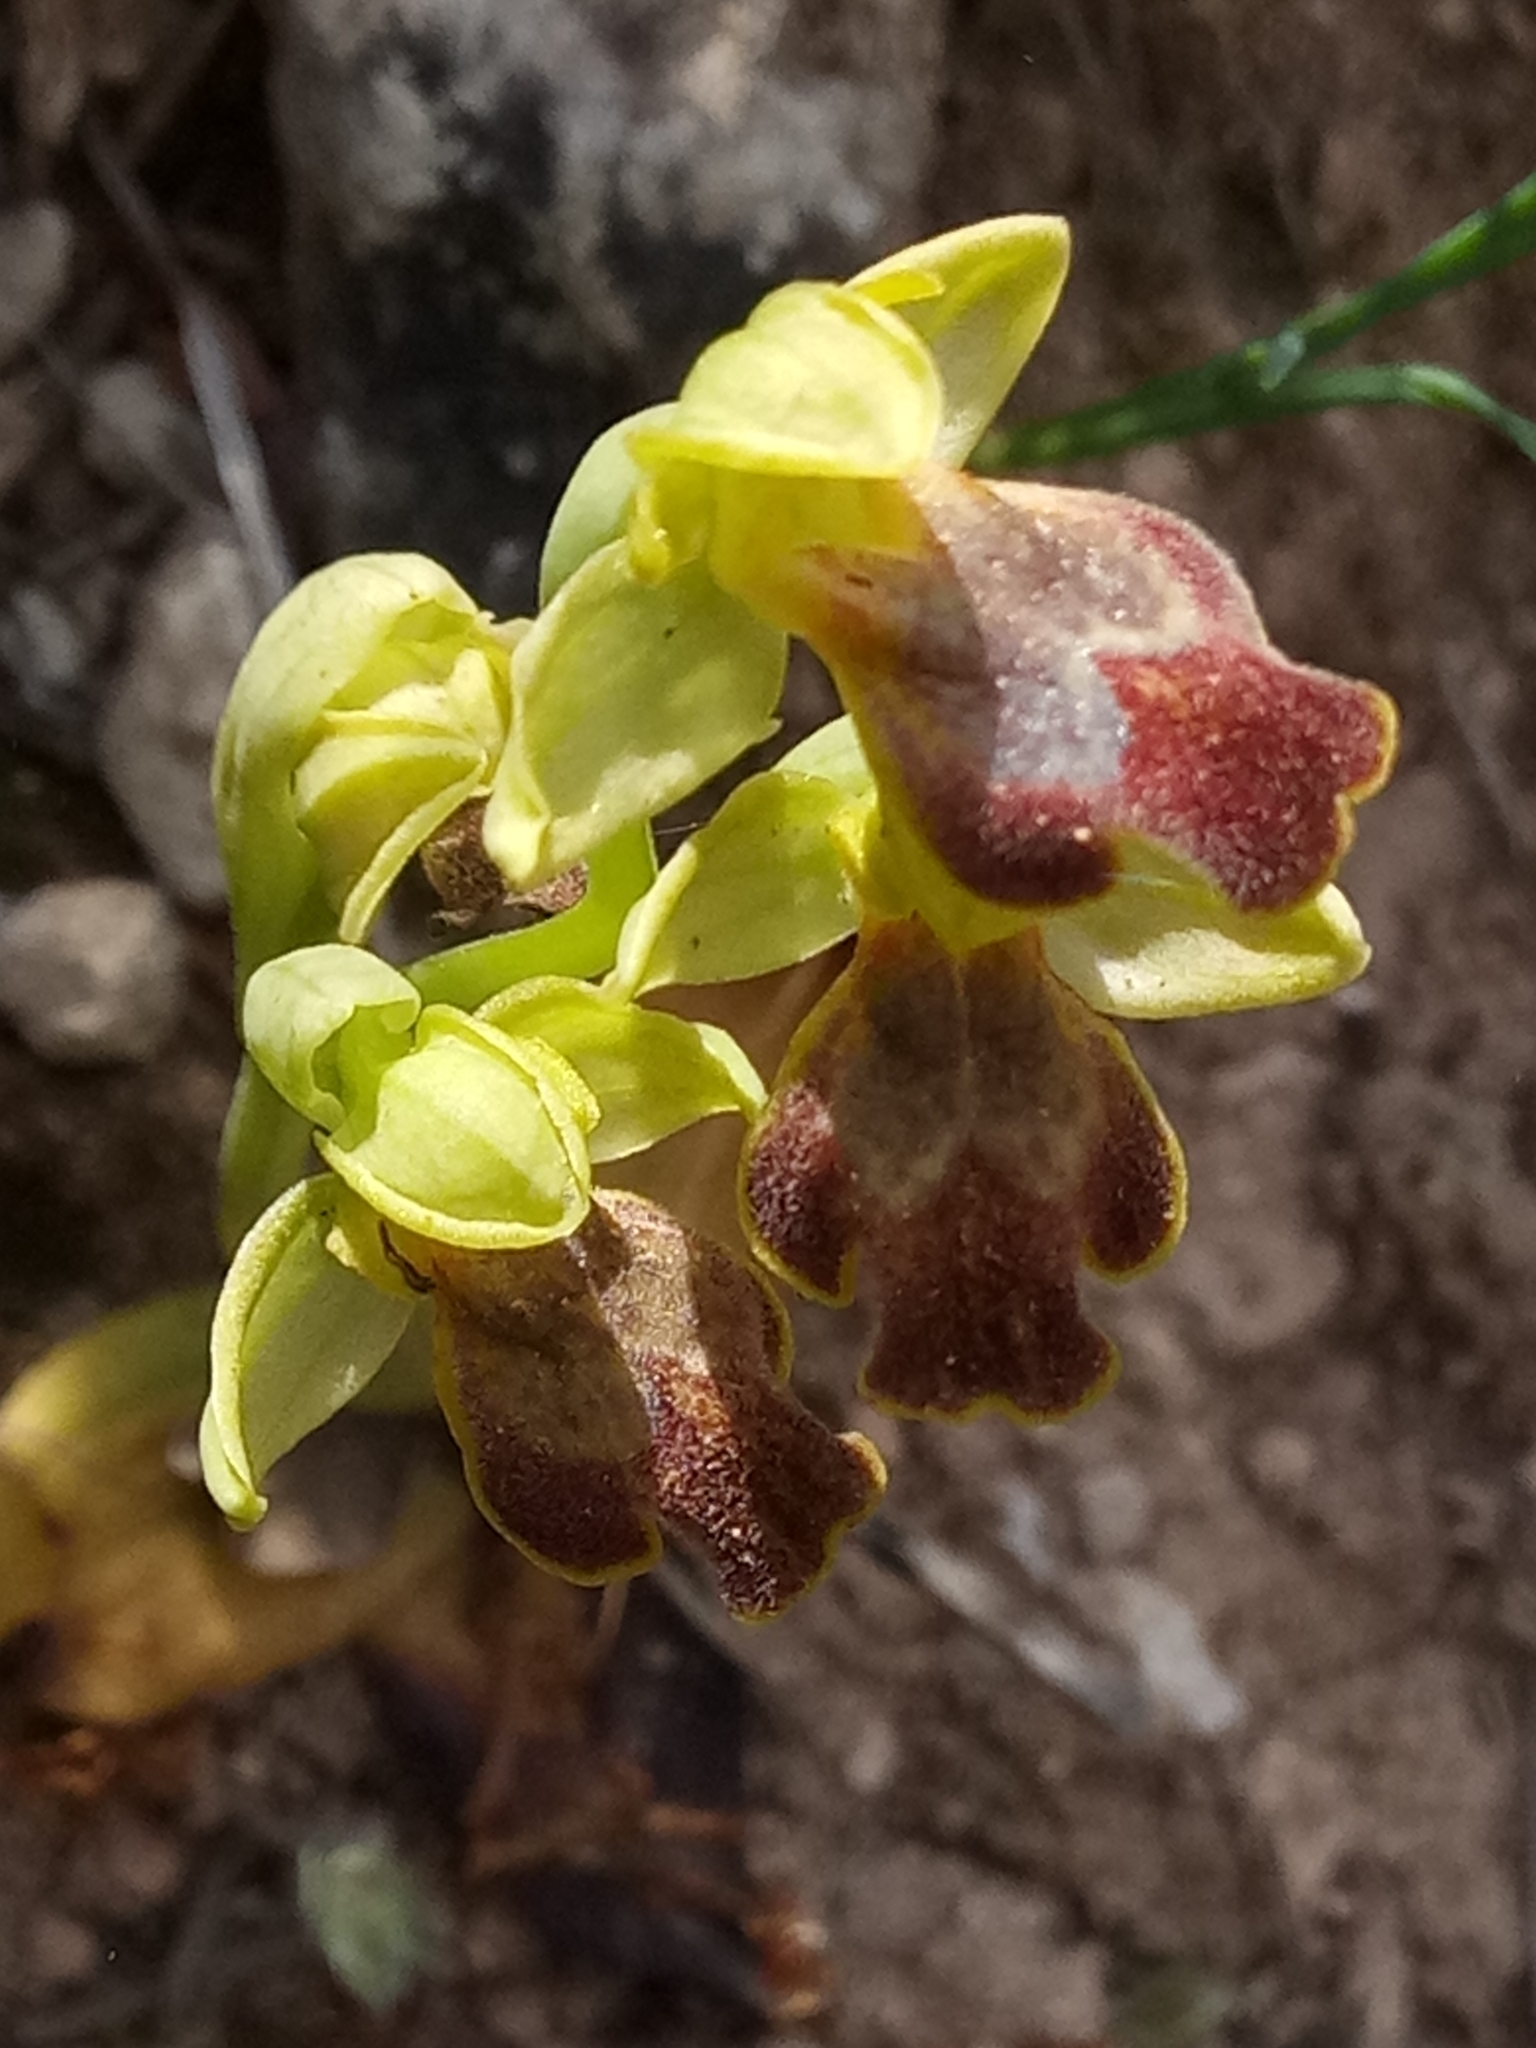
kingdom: Plantae
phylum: Tracheophyta
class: Liliopsida
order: Asparagales
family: Orchidaceae
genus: Ophrys
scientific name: Ophrys fusca
